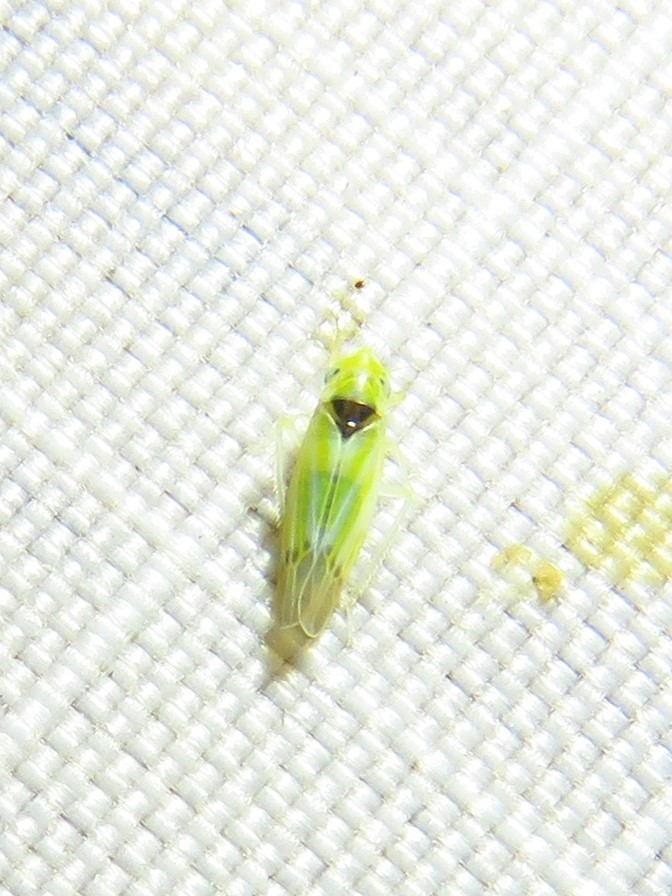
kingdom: Animalia
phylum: Arthropoda
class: Insecta
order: Hemiptera
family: Cicadellidae
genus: Erythridula
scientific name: Erythridula penenoeva
